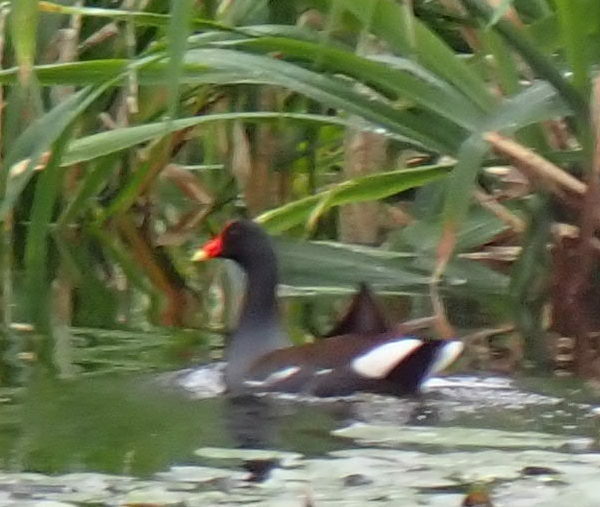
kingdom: Animalia
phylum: Chordata
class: Aves
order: Gruiformes
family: Rallidae
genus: Gallinula
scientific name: Gallinula chloropus
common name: Common moorhen
